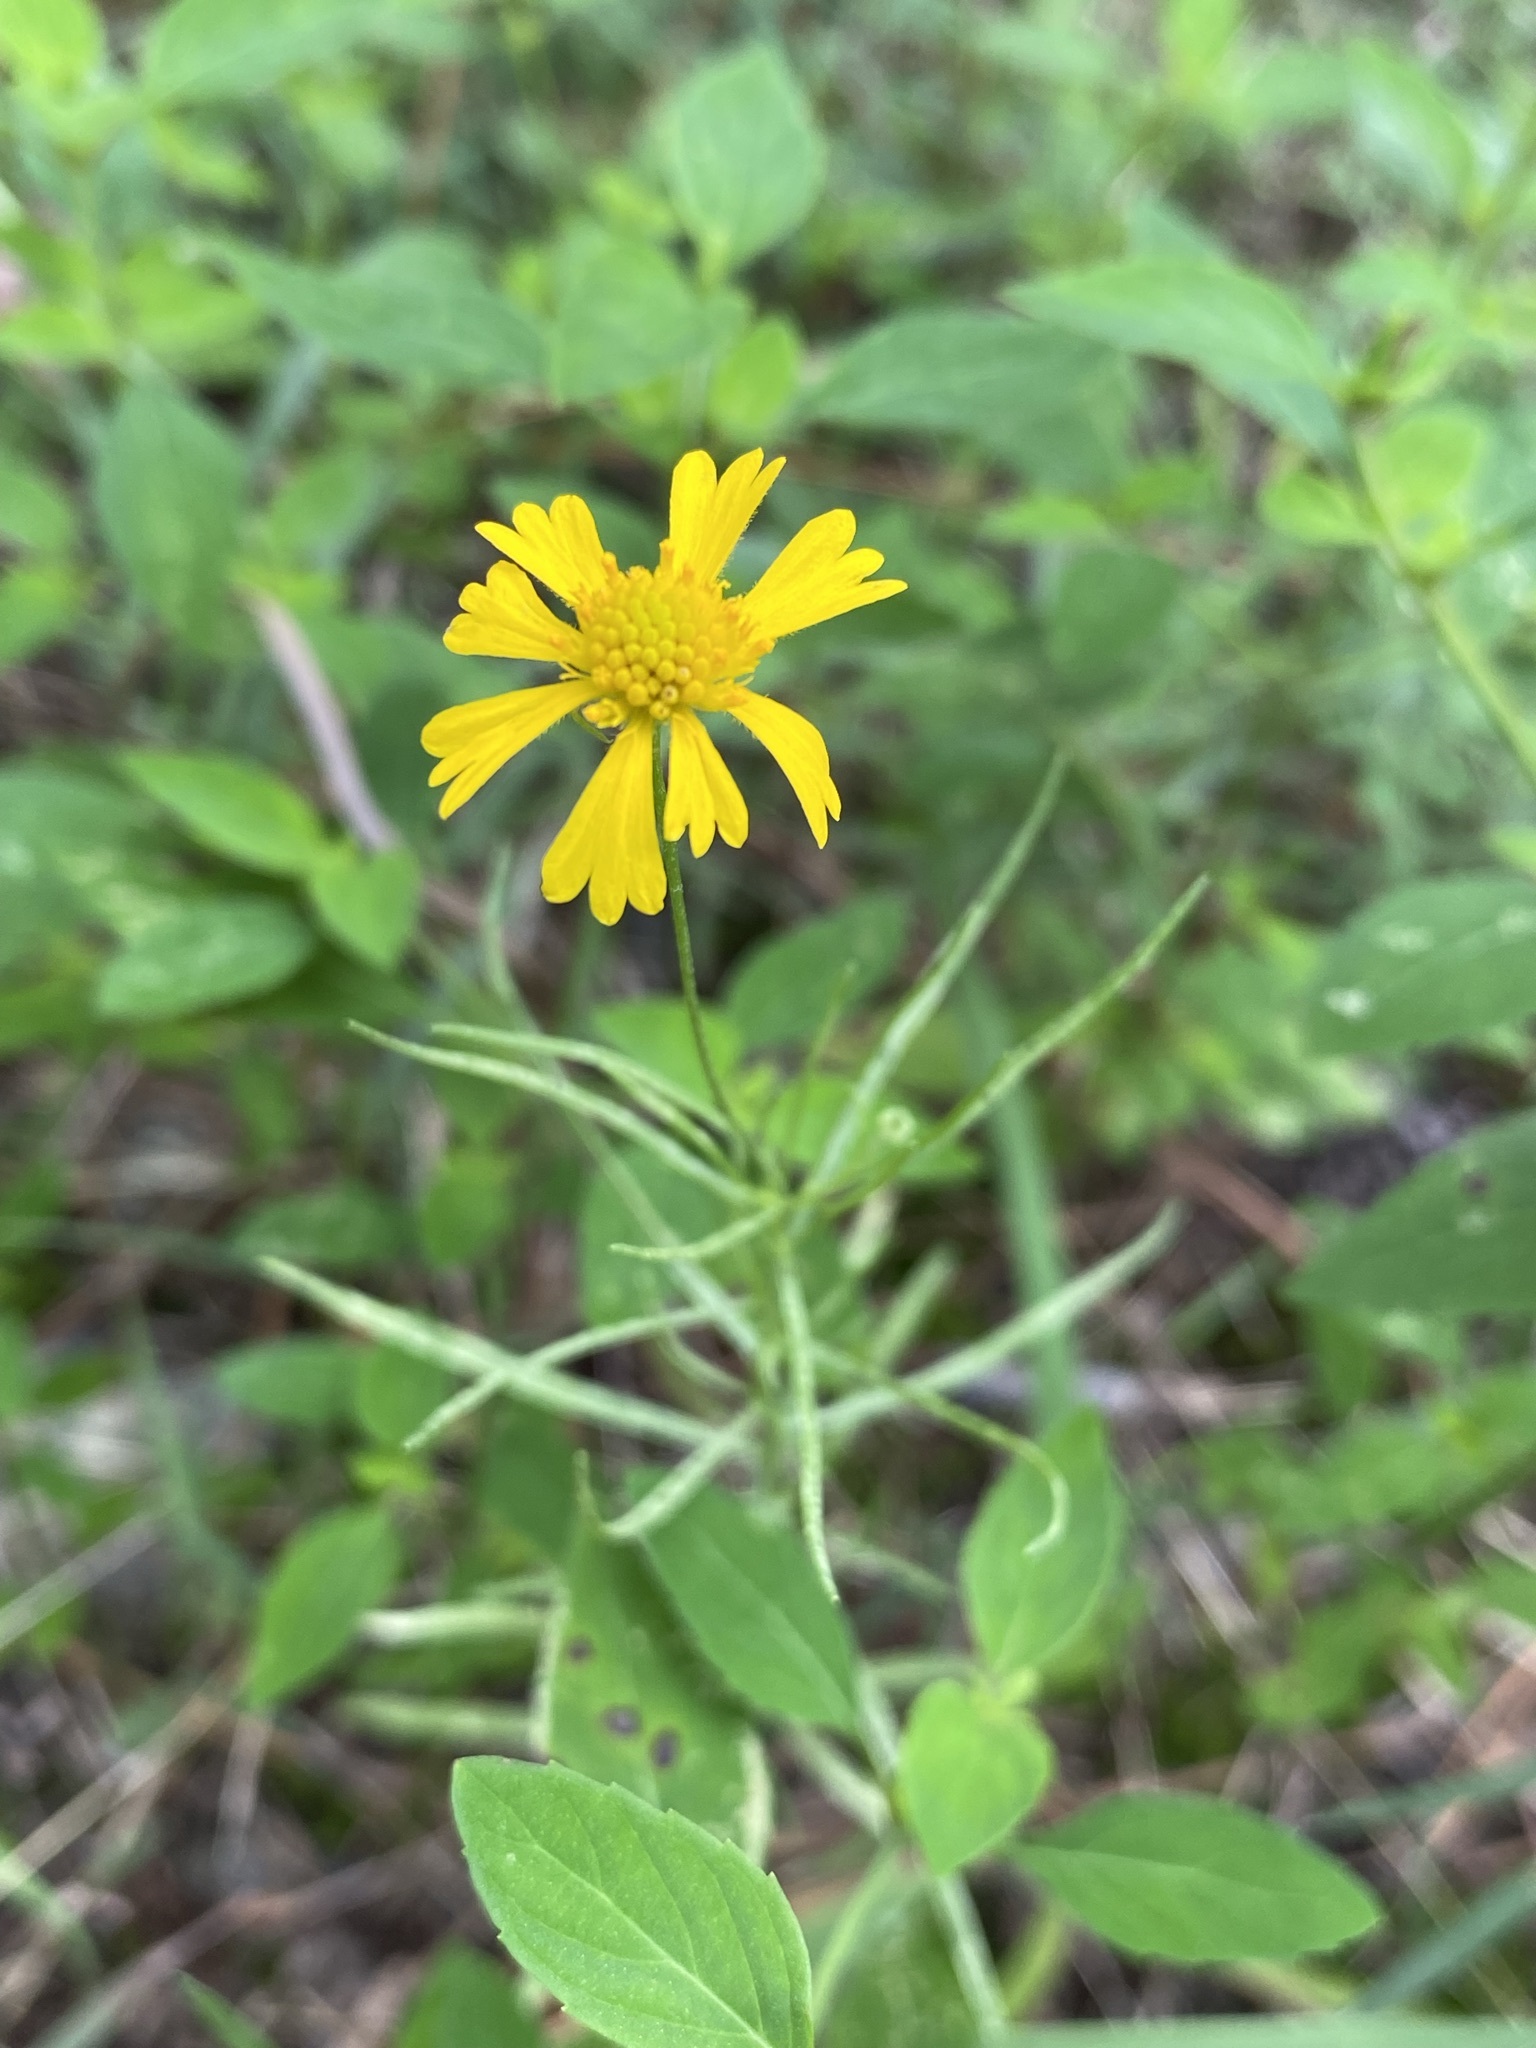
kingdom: Plantae
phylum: Tracheophyta
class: Magnoliopsida
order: Asterales
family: Asteraceae
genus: Helenium
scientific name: Helenium amarum
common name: Bitter sneezeweed
